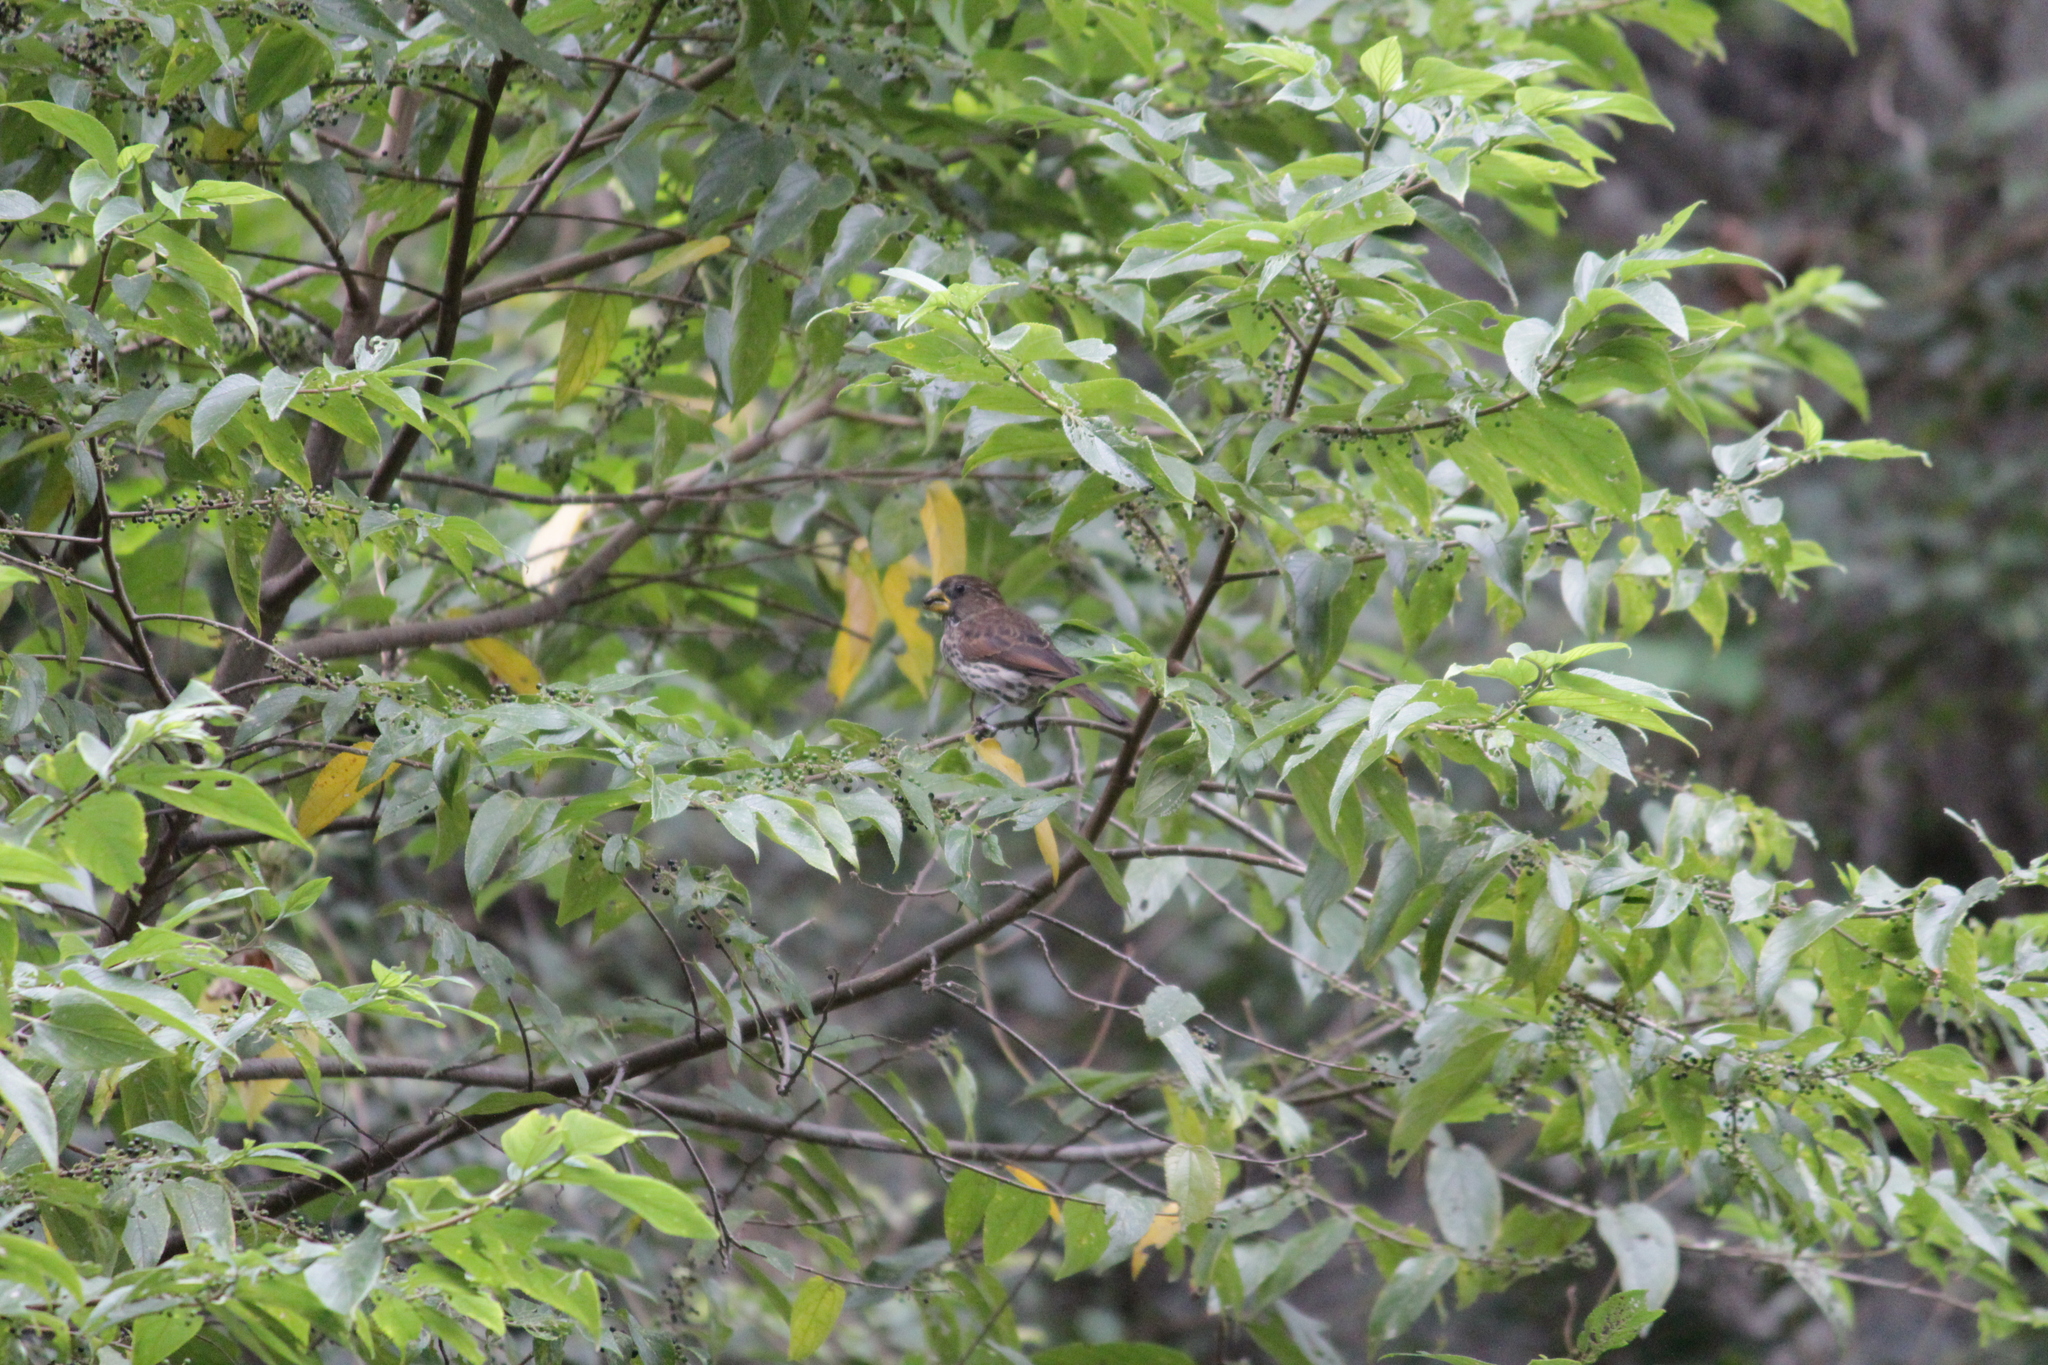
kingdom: Animalia
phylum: Chordata
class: Aves
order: Passeriformes
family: Ploceidae
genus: Amblyospiza
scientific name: Amblyospiza albifrons
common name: Thick-billed weaver
